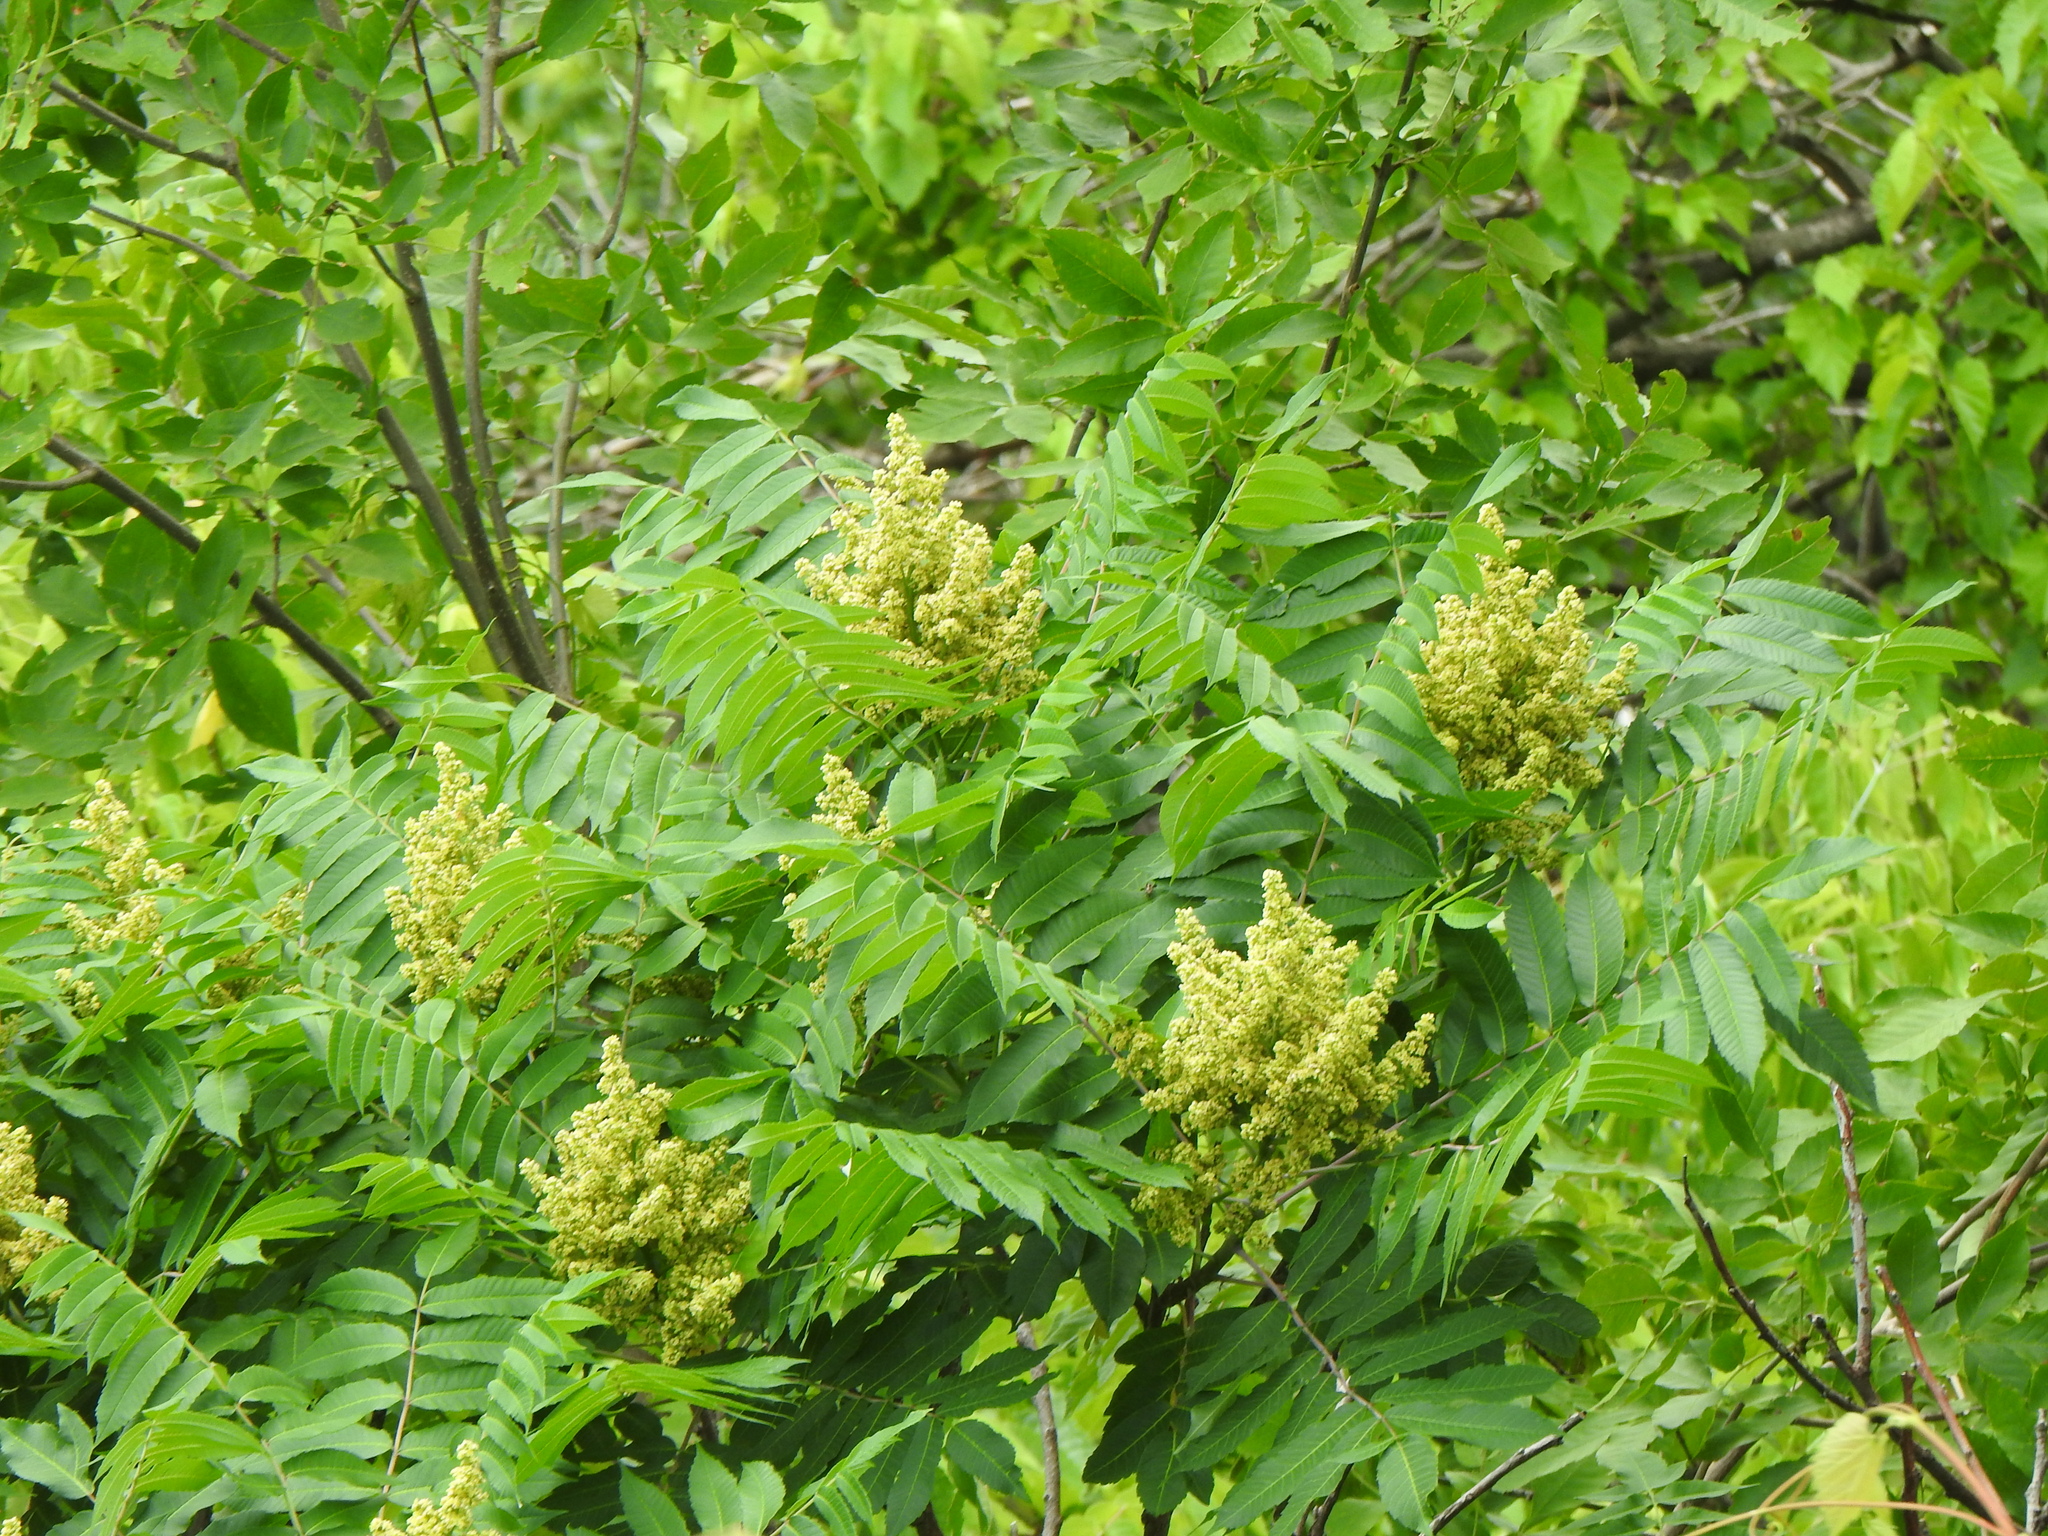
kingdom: Plantae
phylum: Tracheophyta
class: Magnoliopsida
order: Sapindales
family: Anacardiaceae
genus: Rhus
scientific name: Rhus glabra
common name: Scarlet sumac
